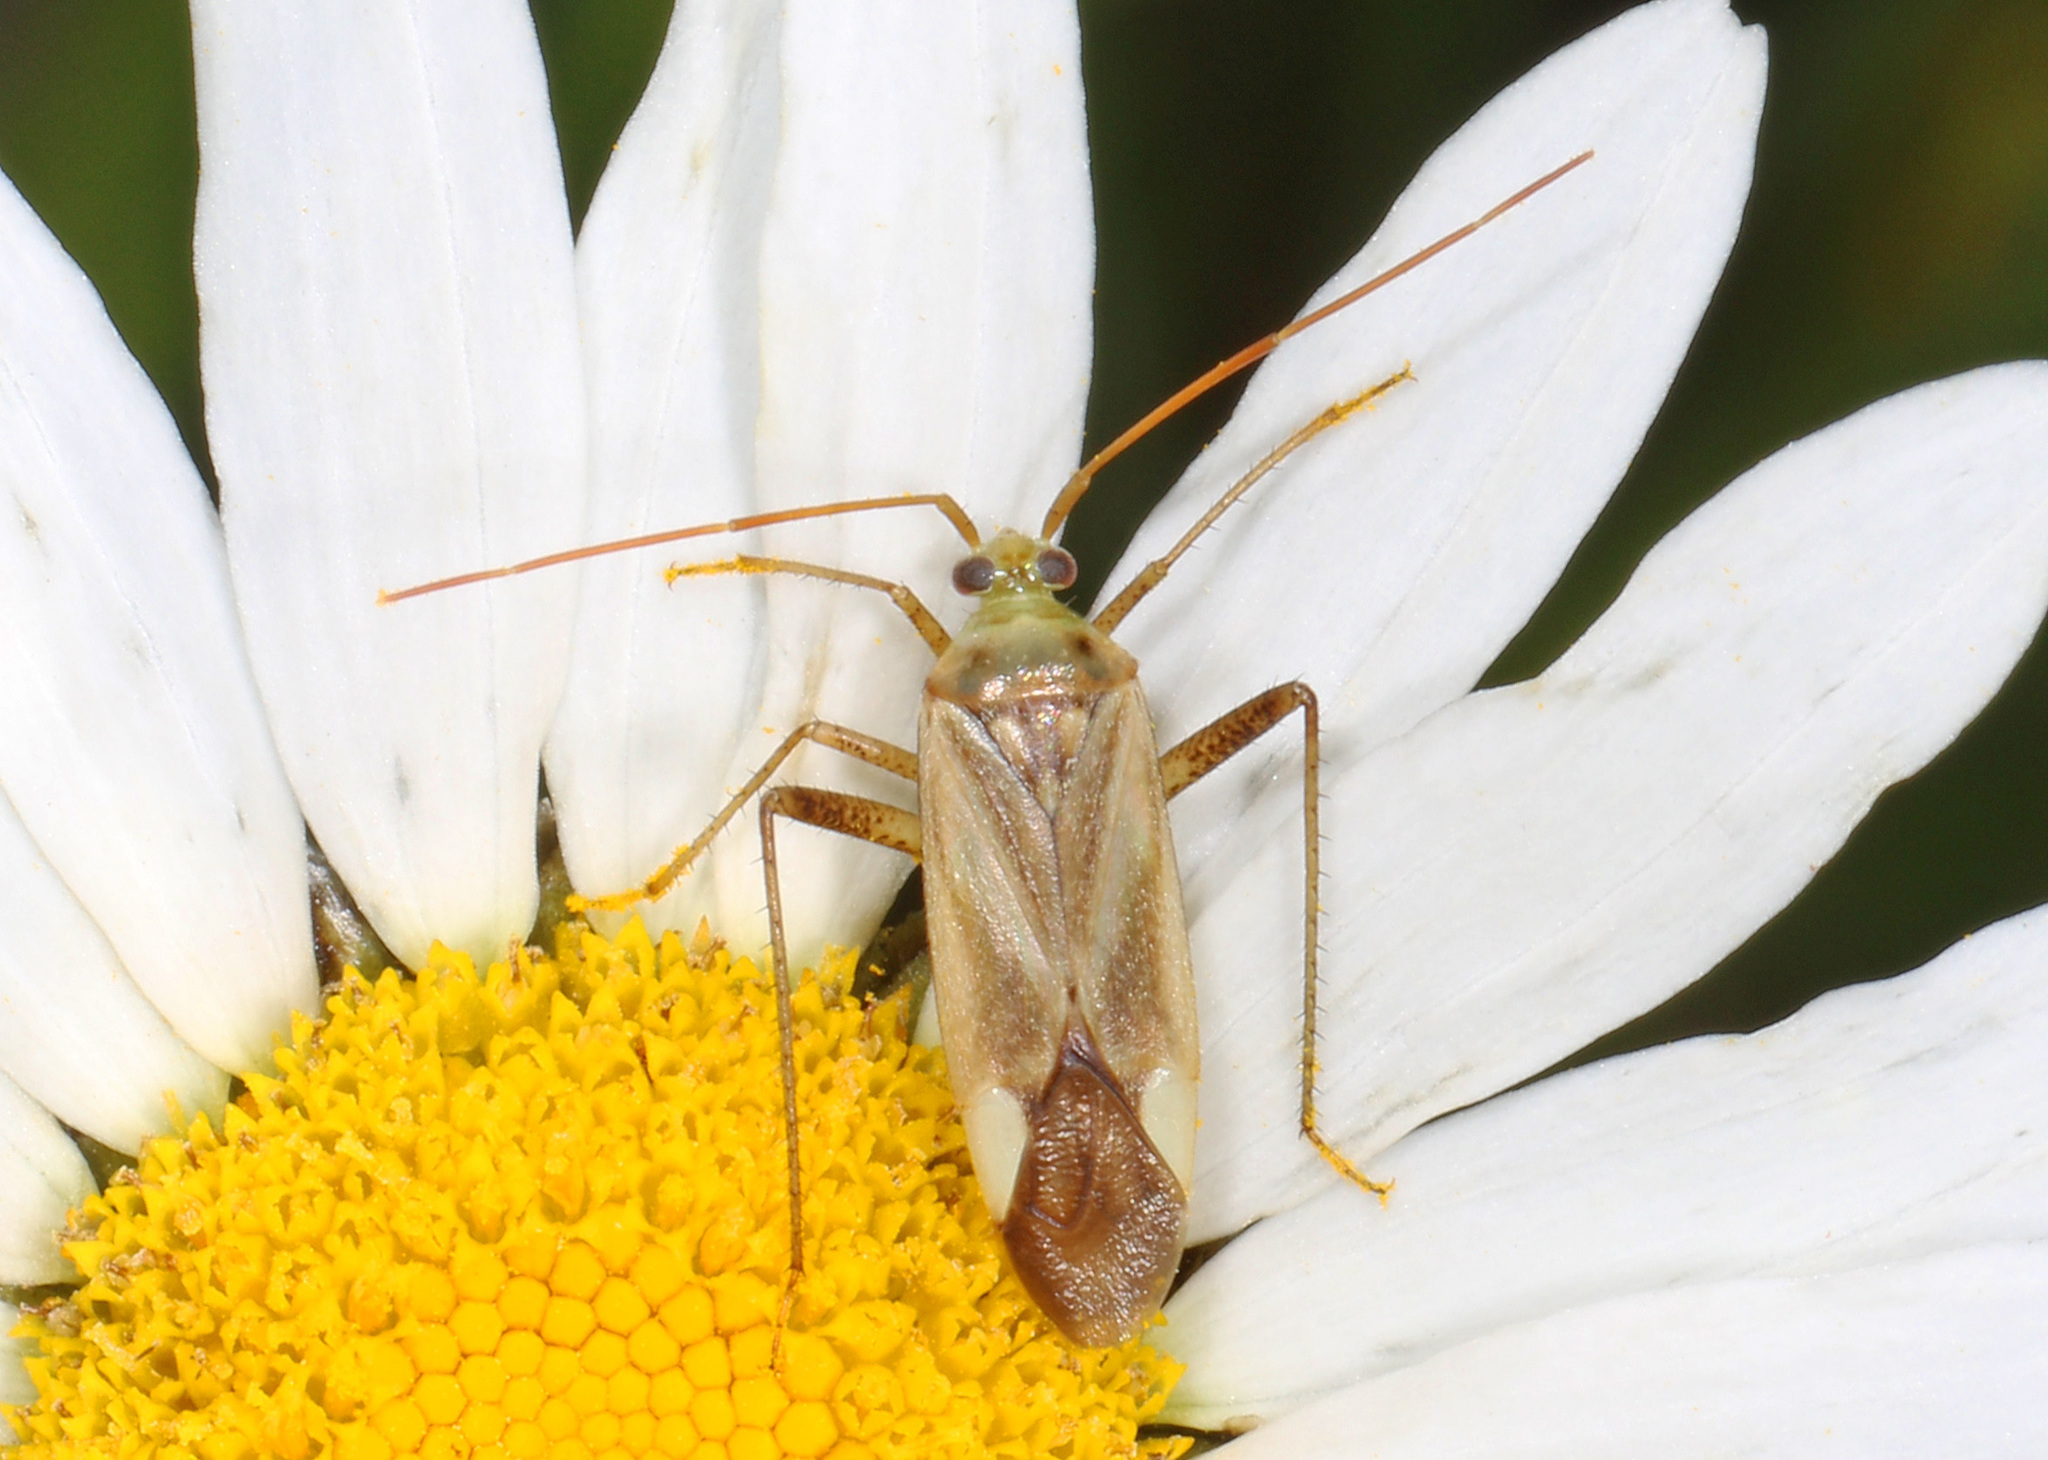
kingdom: Animalia
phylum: Arthropoda
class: Insecta
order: Hemiptera
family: Miridae
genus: Adelphocoris
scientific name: Adelphocoris lineolatus
